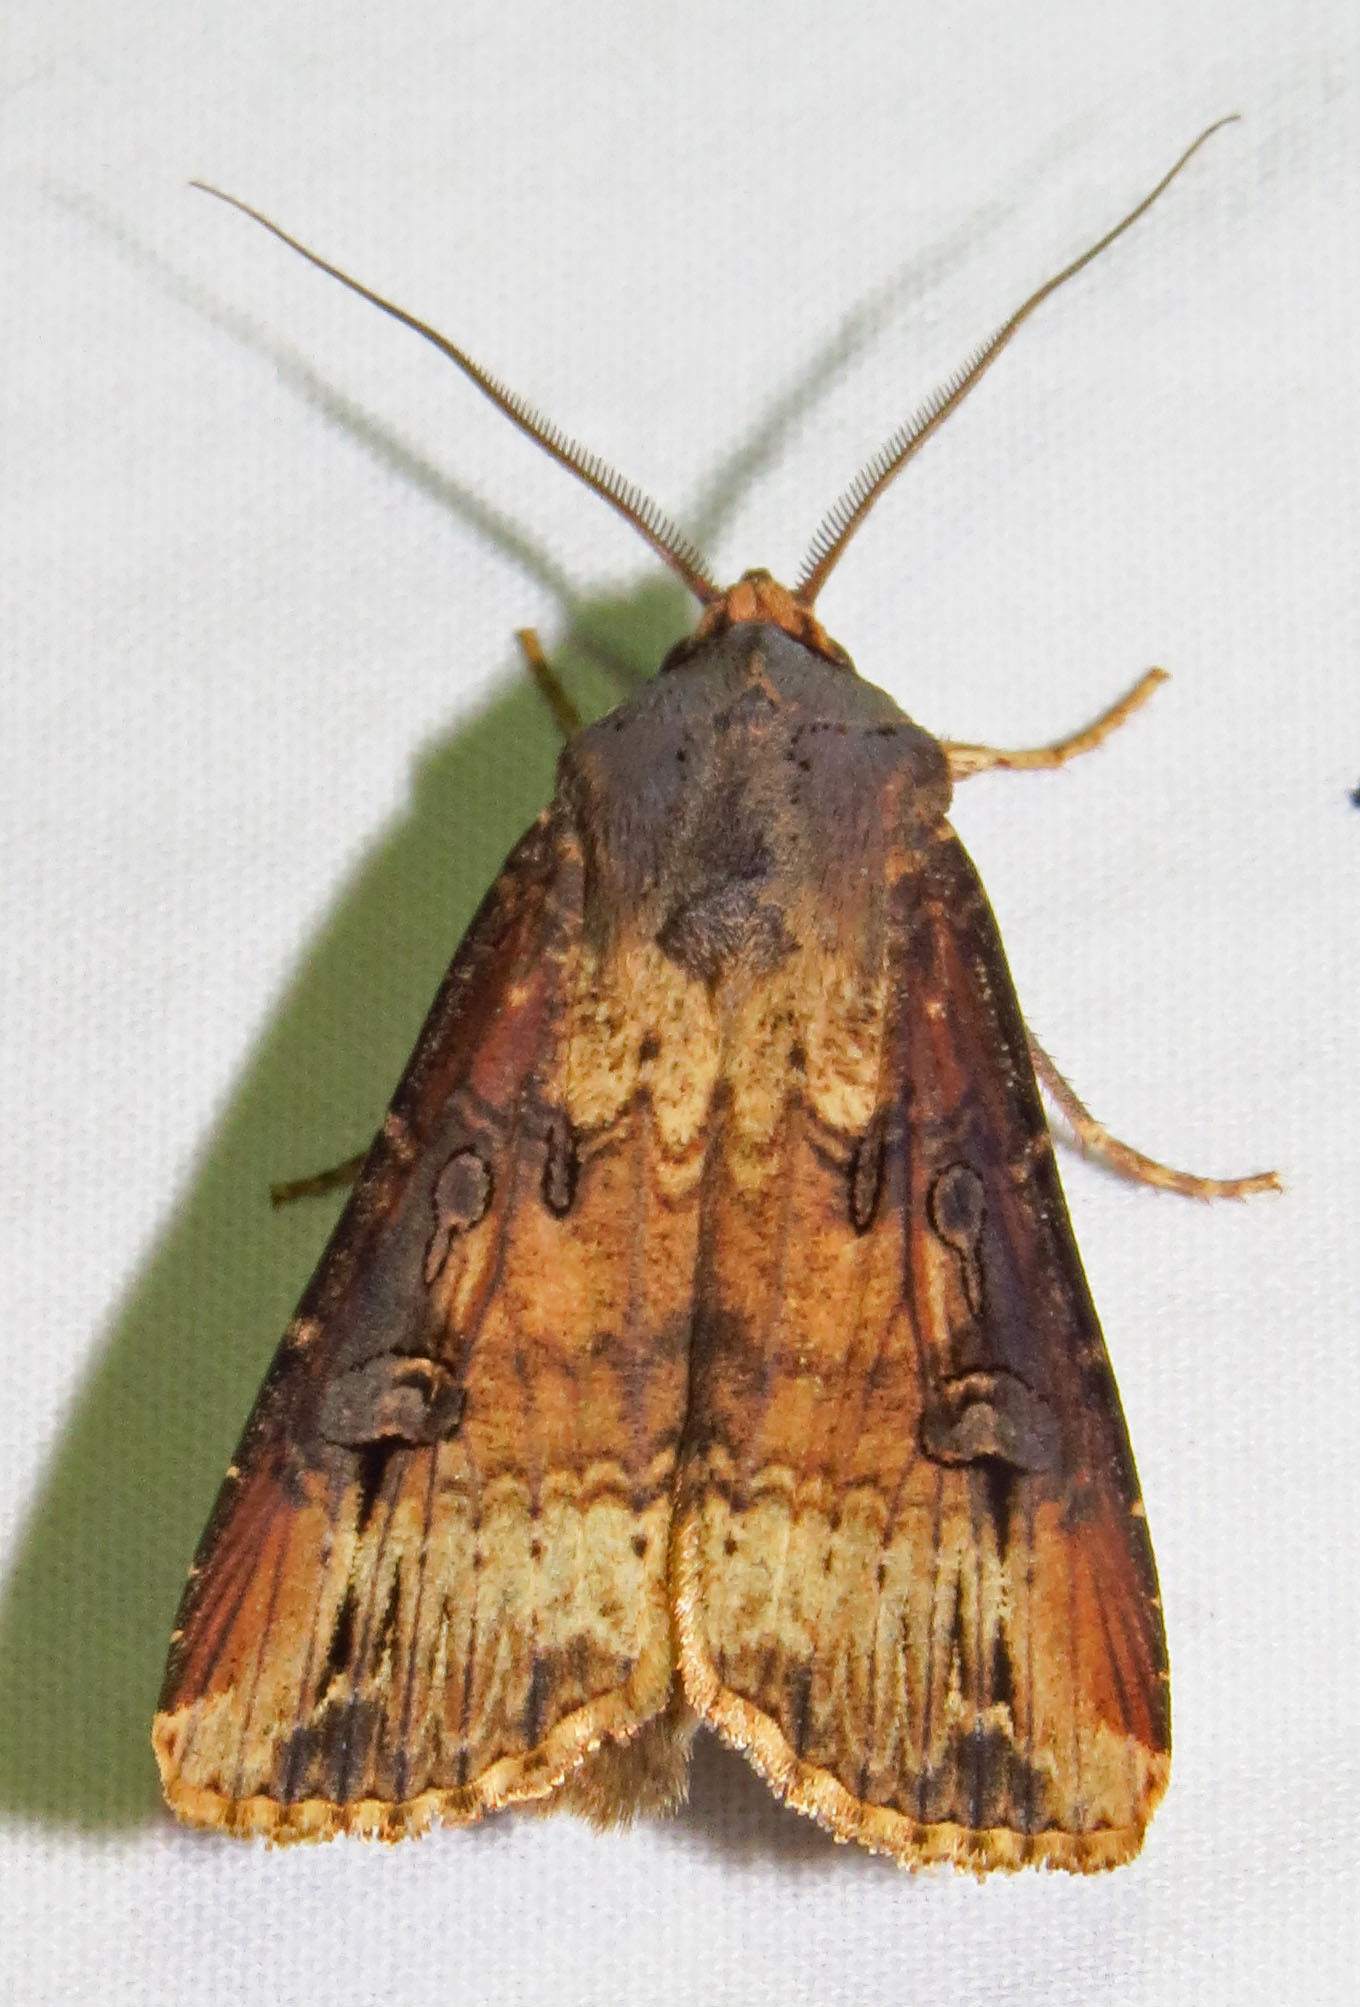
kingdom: Animalia
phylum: Arthropoda
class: Insecta
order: Lepidoptera
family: Noctuidae
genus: Agrotis
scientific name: Agrotis ipsilon
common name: Dark sword-grass
